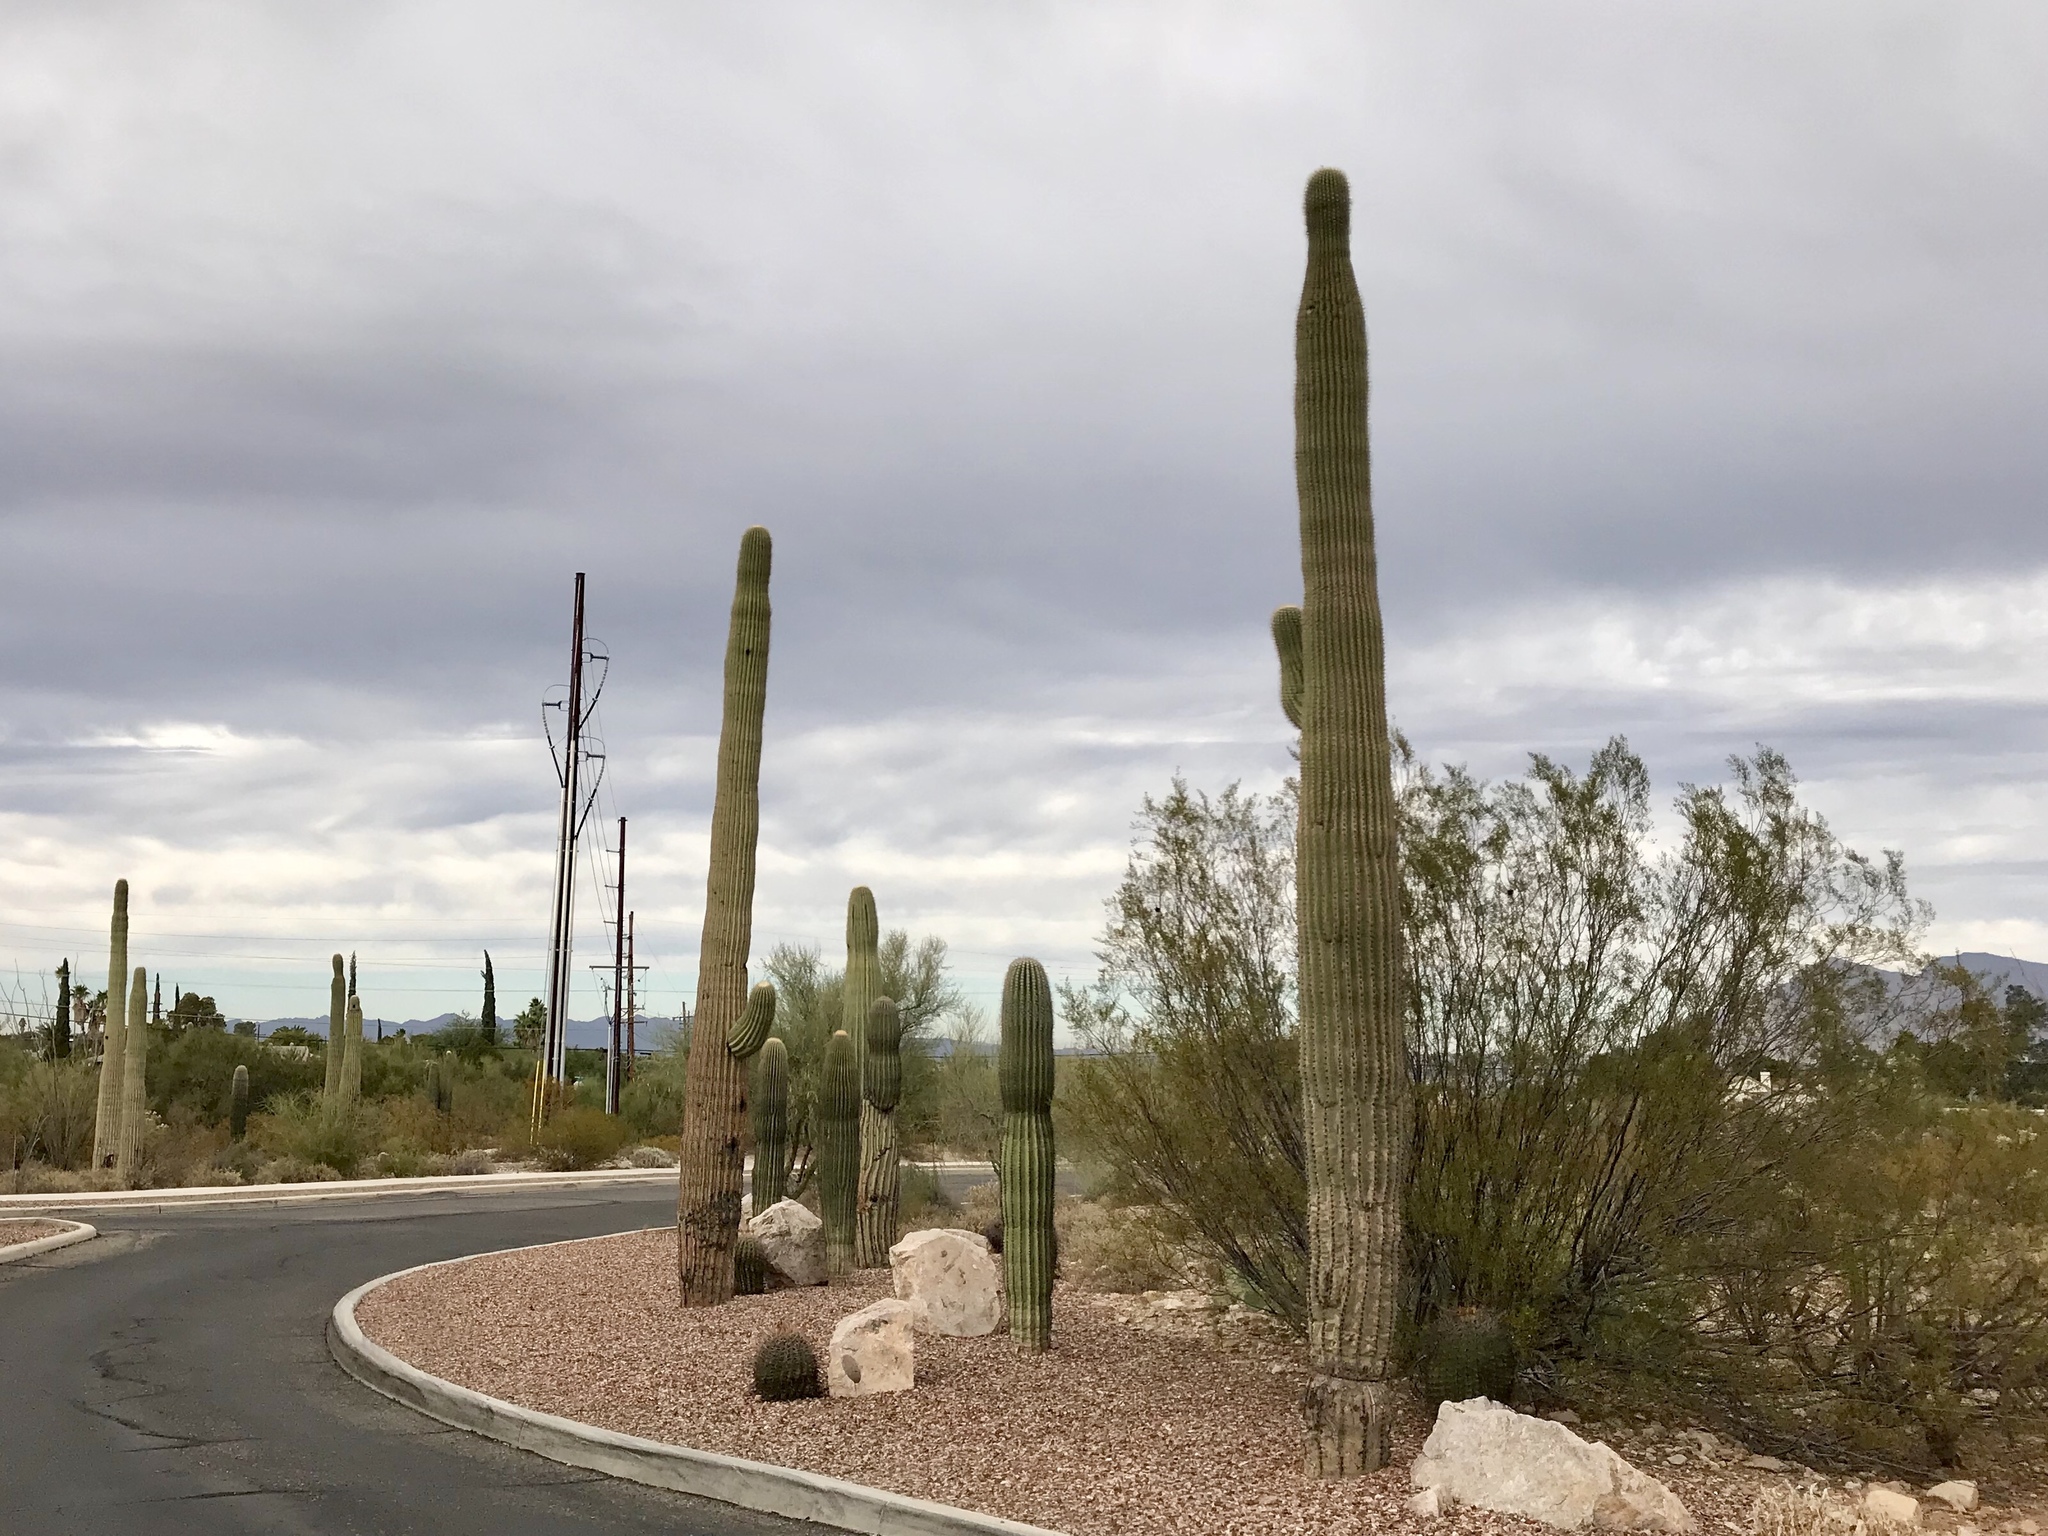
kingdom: Plantae
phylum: Tracheophyta
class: Magnoliopsida
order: Caryophyllales
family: Cactaceae
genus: Carnegiea
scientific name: Carnegiea gigantea
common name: Saguaro
